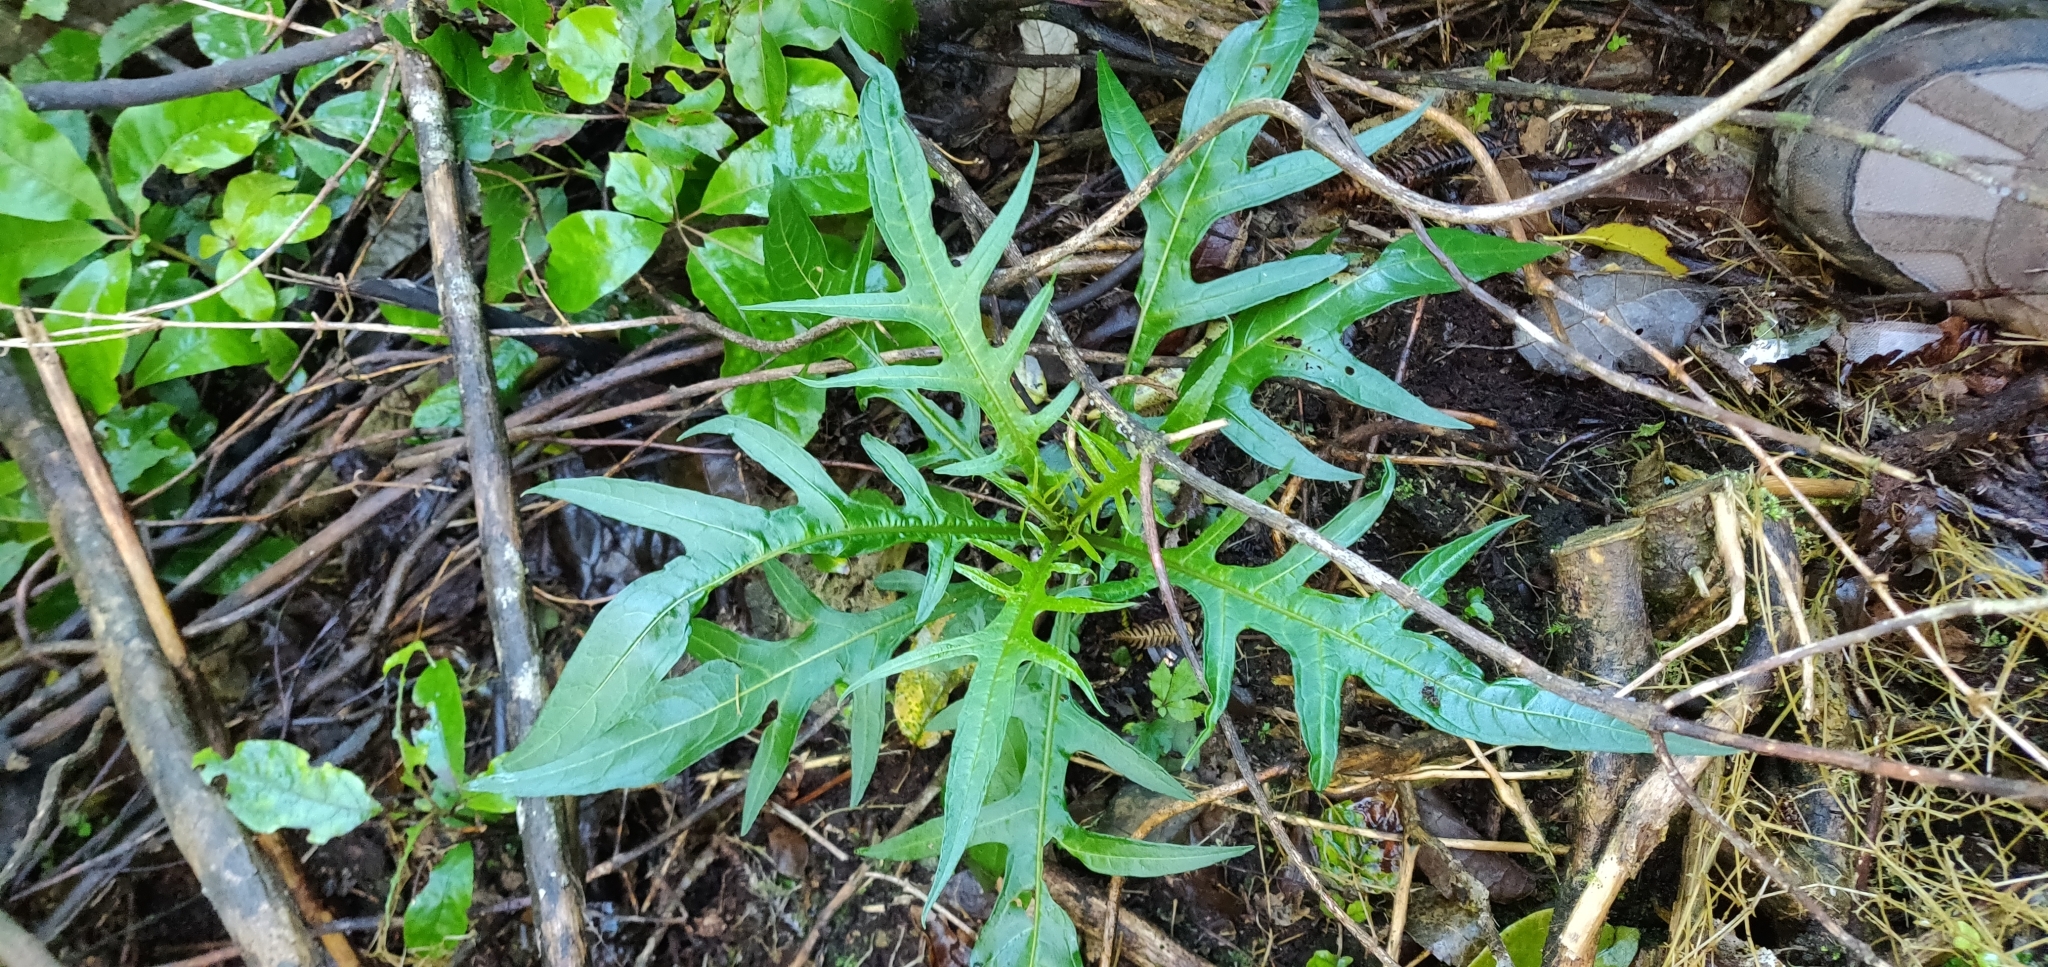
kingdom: Plantae
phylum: Tracheophyta
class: Magnoliopsida
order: Solanales
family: Solanaceae
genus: Solanum
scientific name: Solanum
